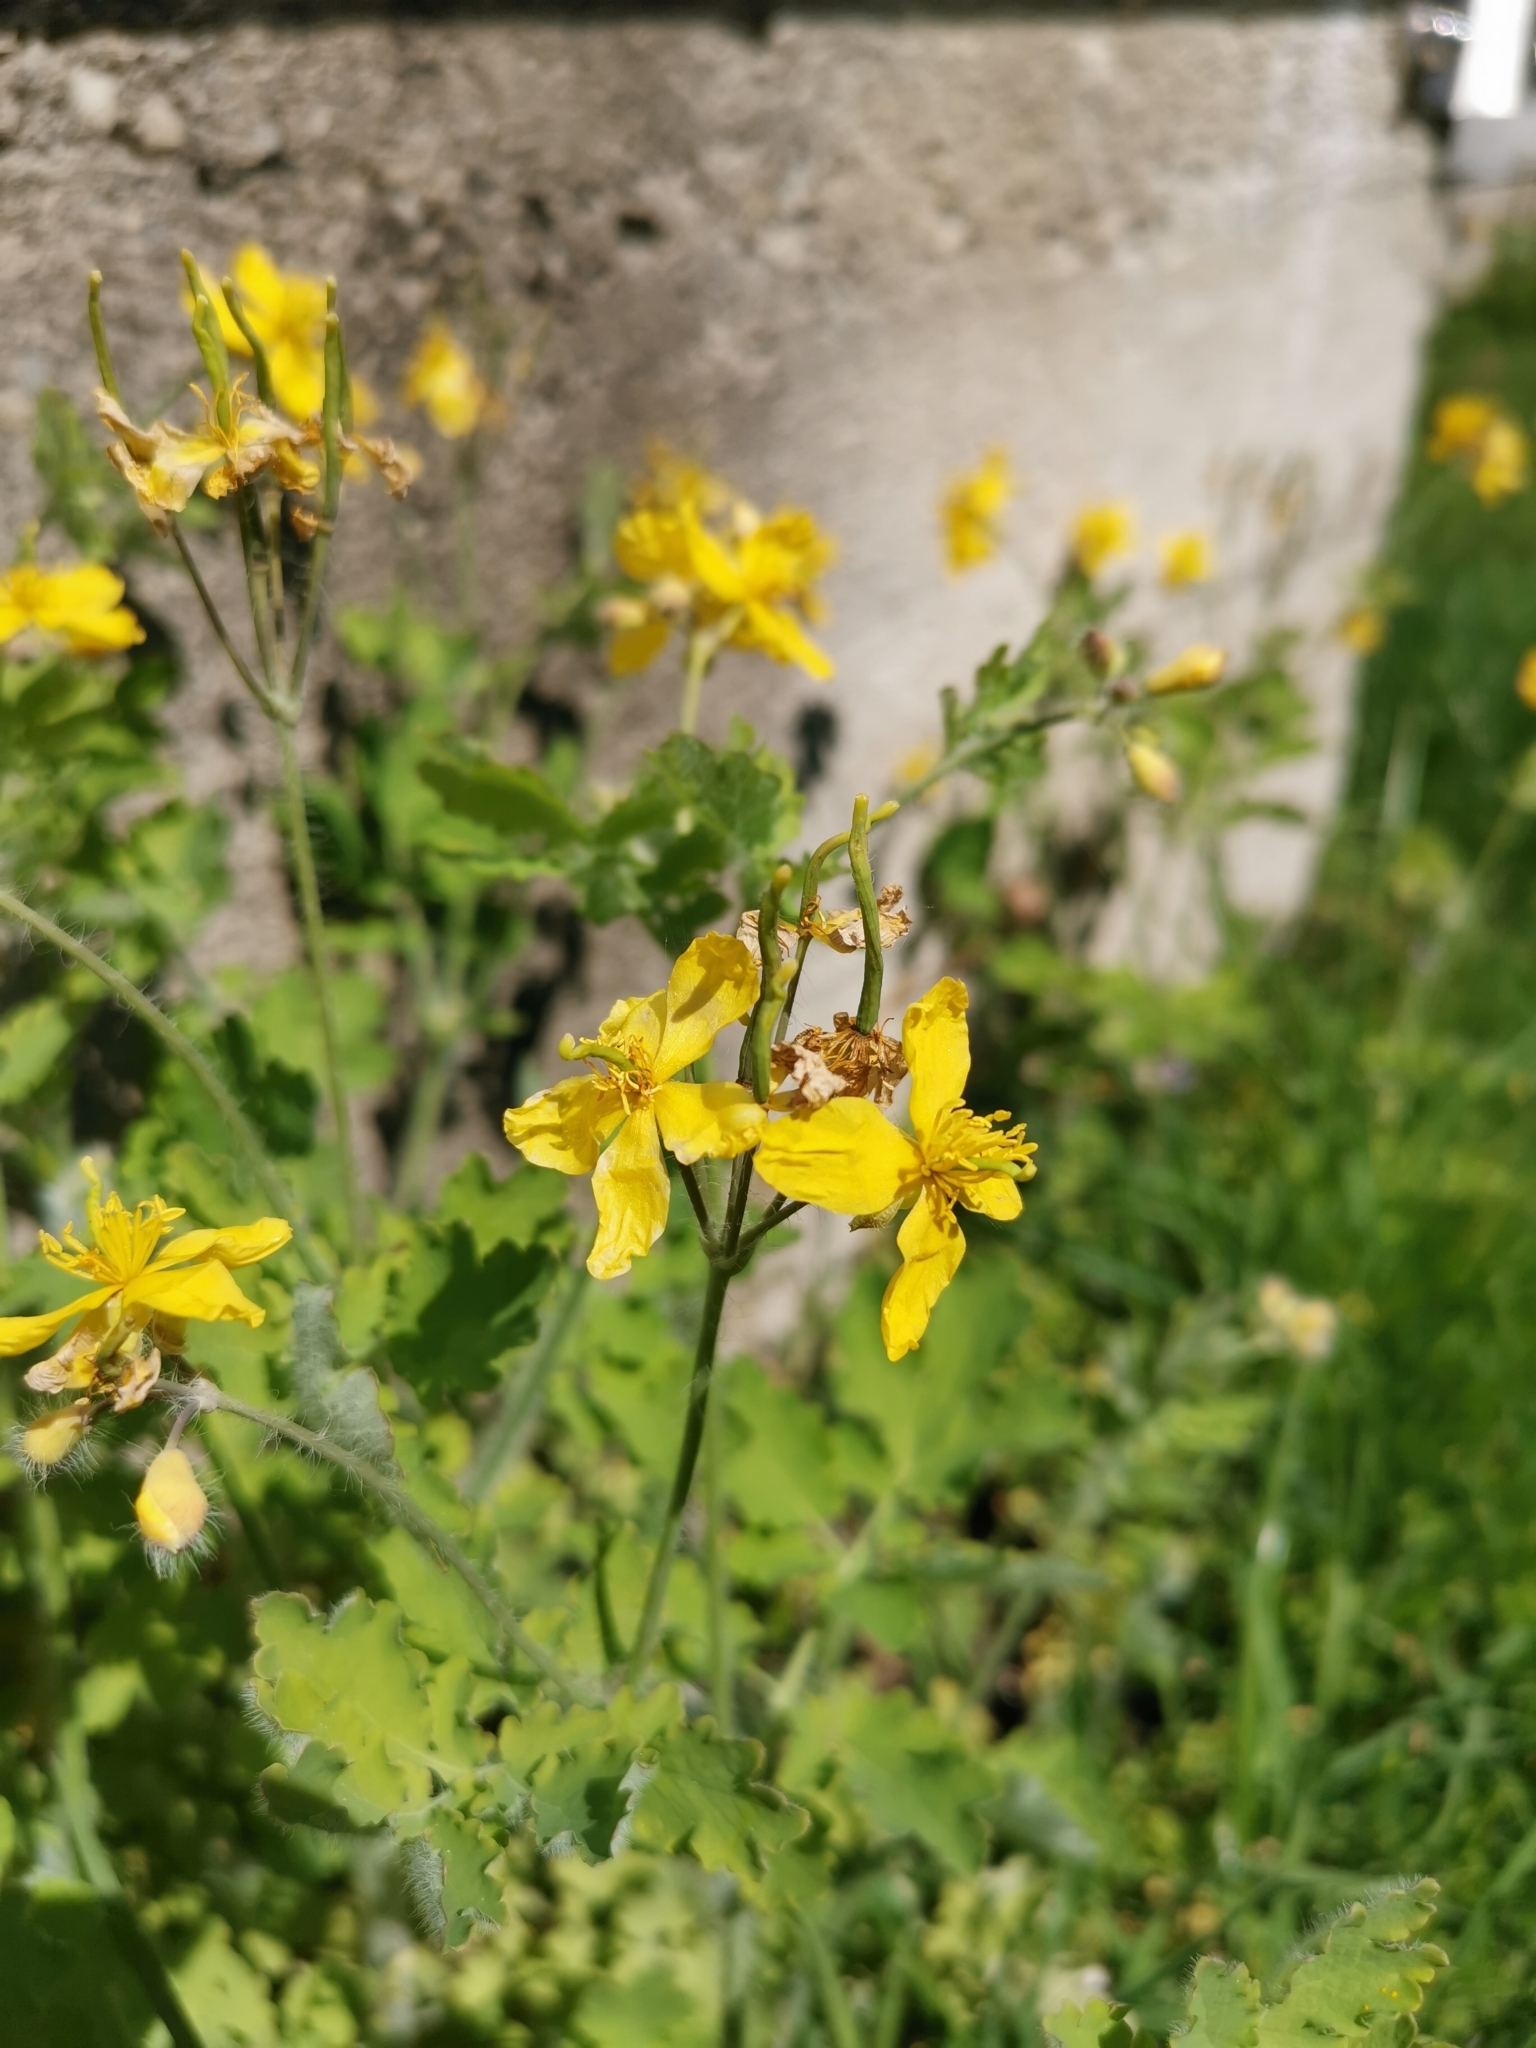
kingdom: Plantae
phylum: Tracheophyta
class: Magnoliopsida
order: Ranunculales
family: Papaveraceae
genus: Chelidonium
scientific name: Chelidonium majus
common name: Greater celandine
